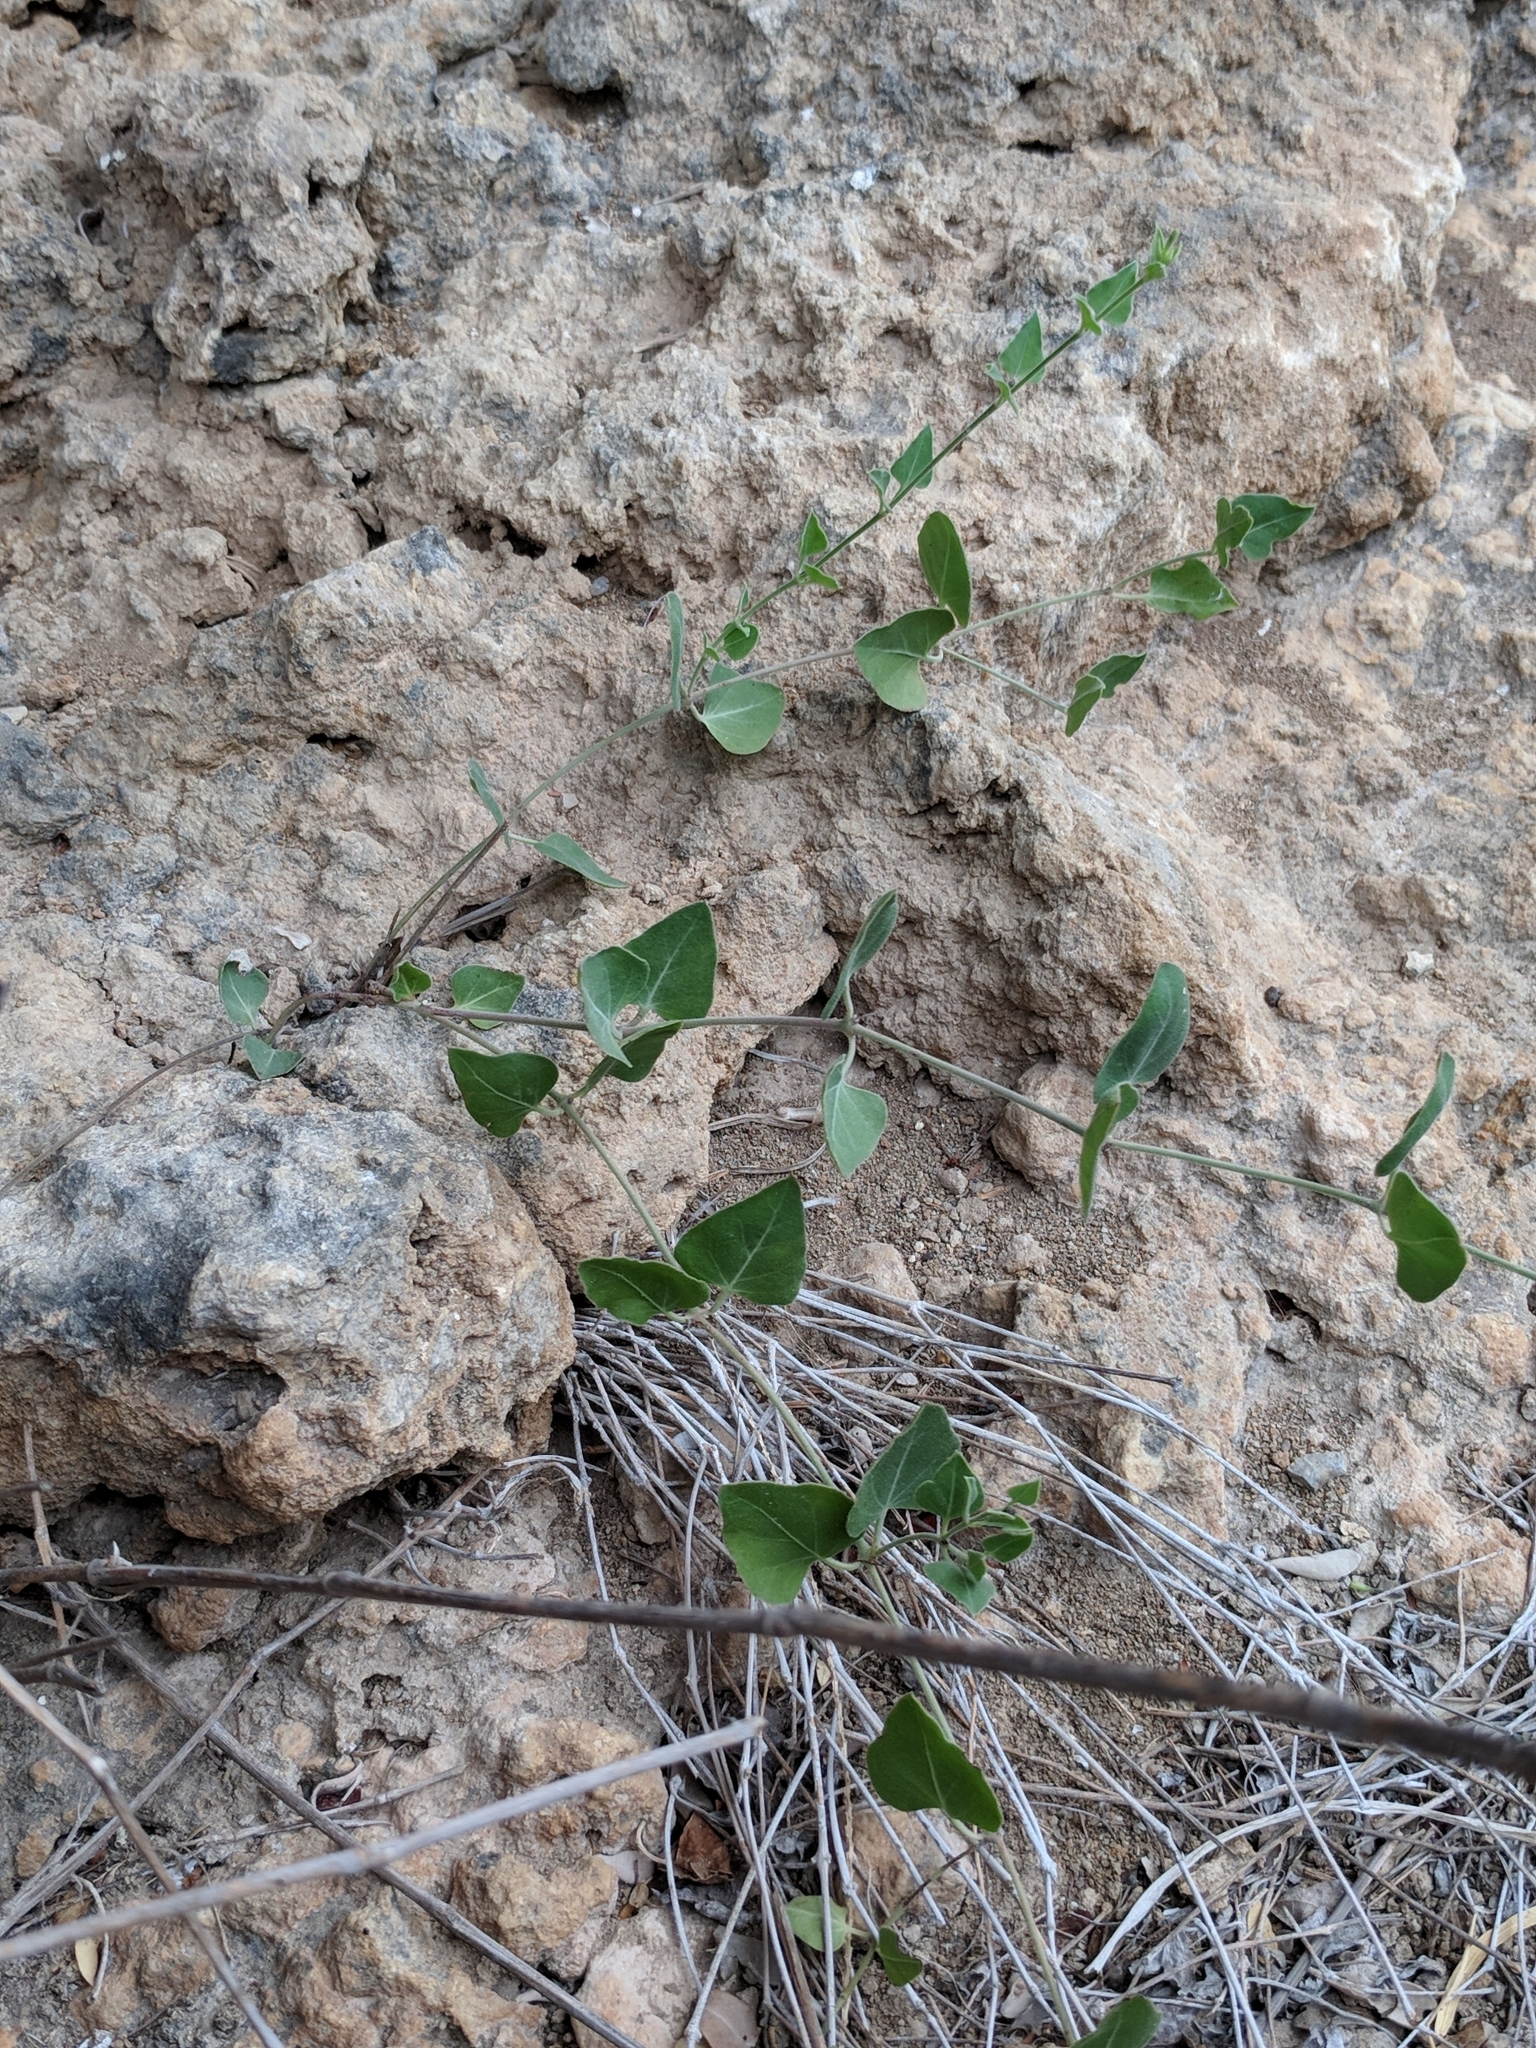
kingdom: Plantae
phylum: Tracheophyta
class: Magnoliopsida
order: Caryophyllales
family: Nyctaginaceae
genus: Acleisanthes
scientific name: Acleisanthes longiflora
